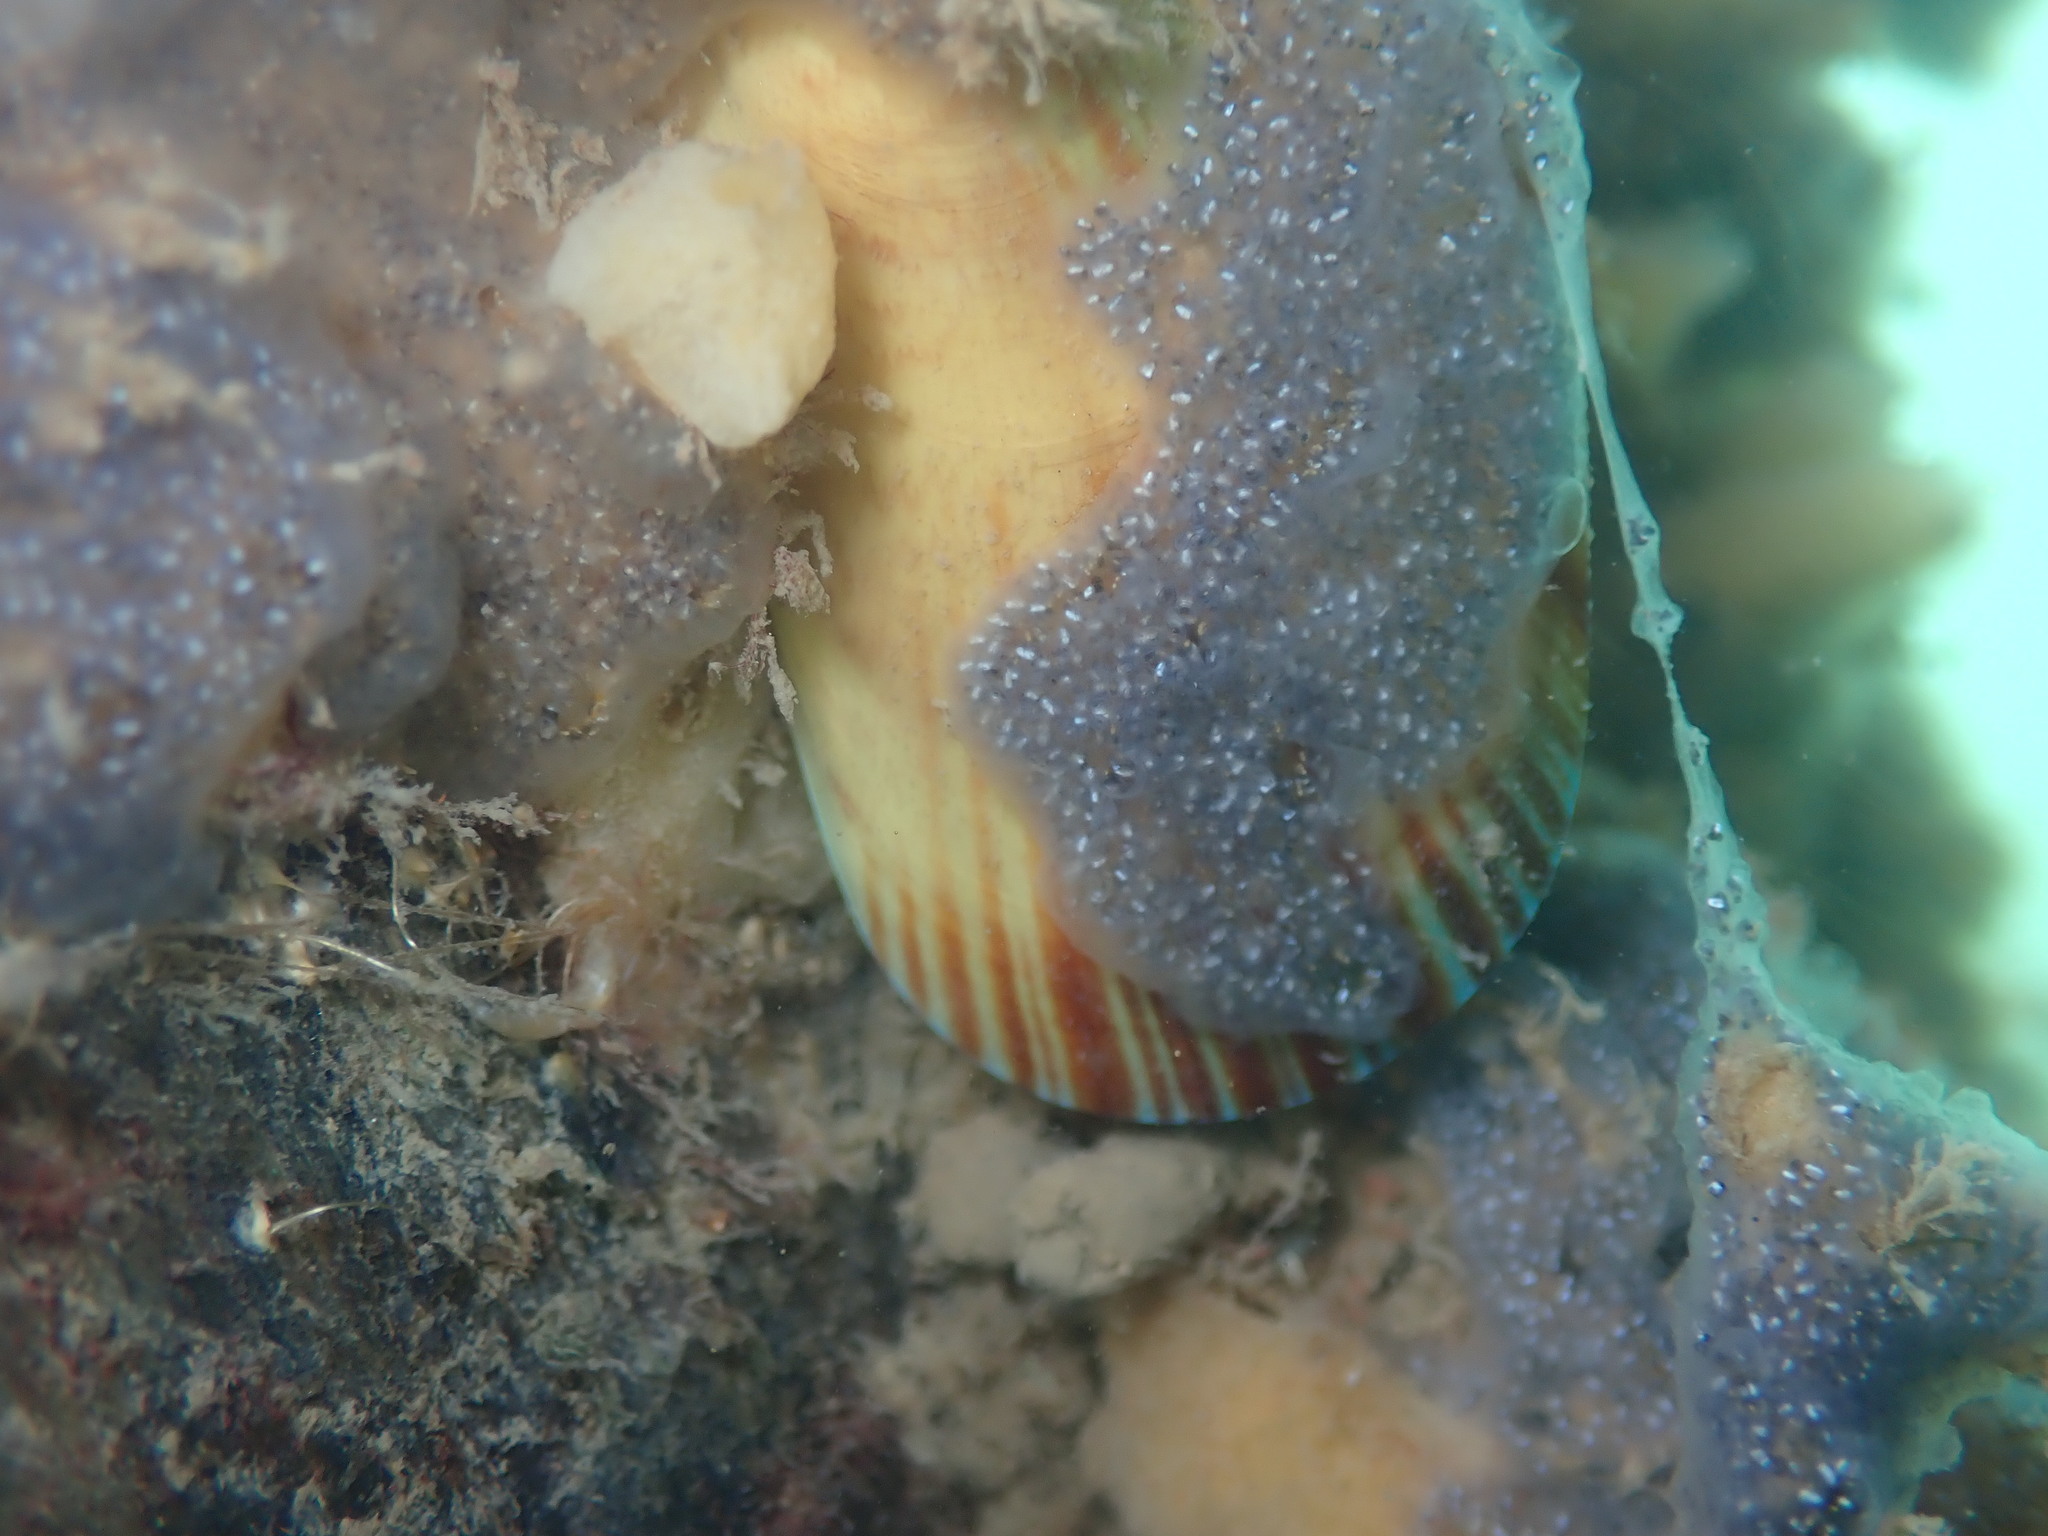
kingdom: Animalia
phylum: Mollusca
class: Bivalvia
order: Mytilida
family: Mytilidae
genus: Perna
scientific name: Perna canaliculus
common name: New zealand greenshelltm
